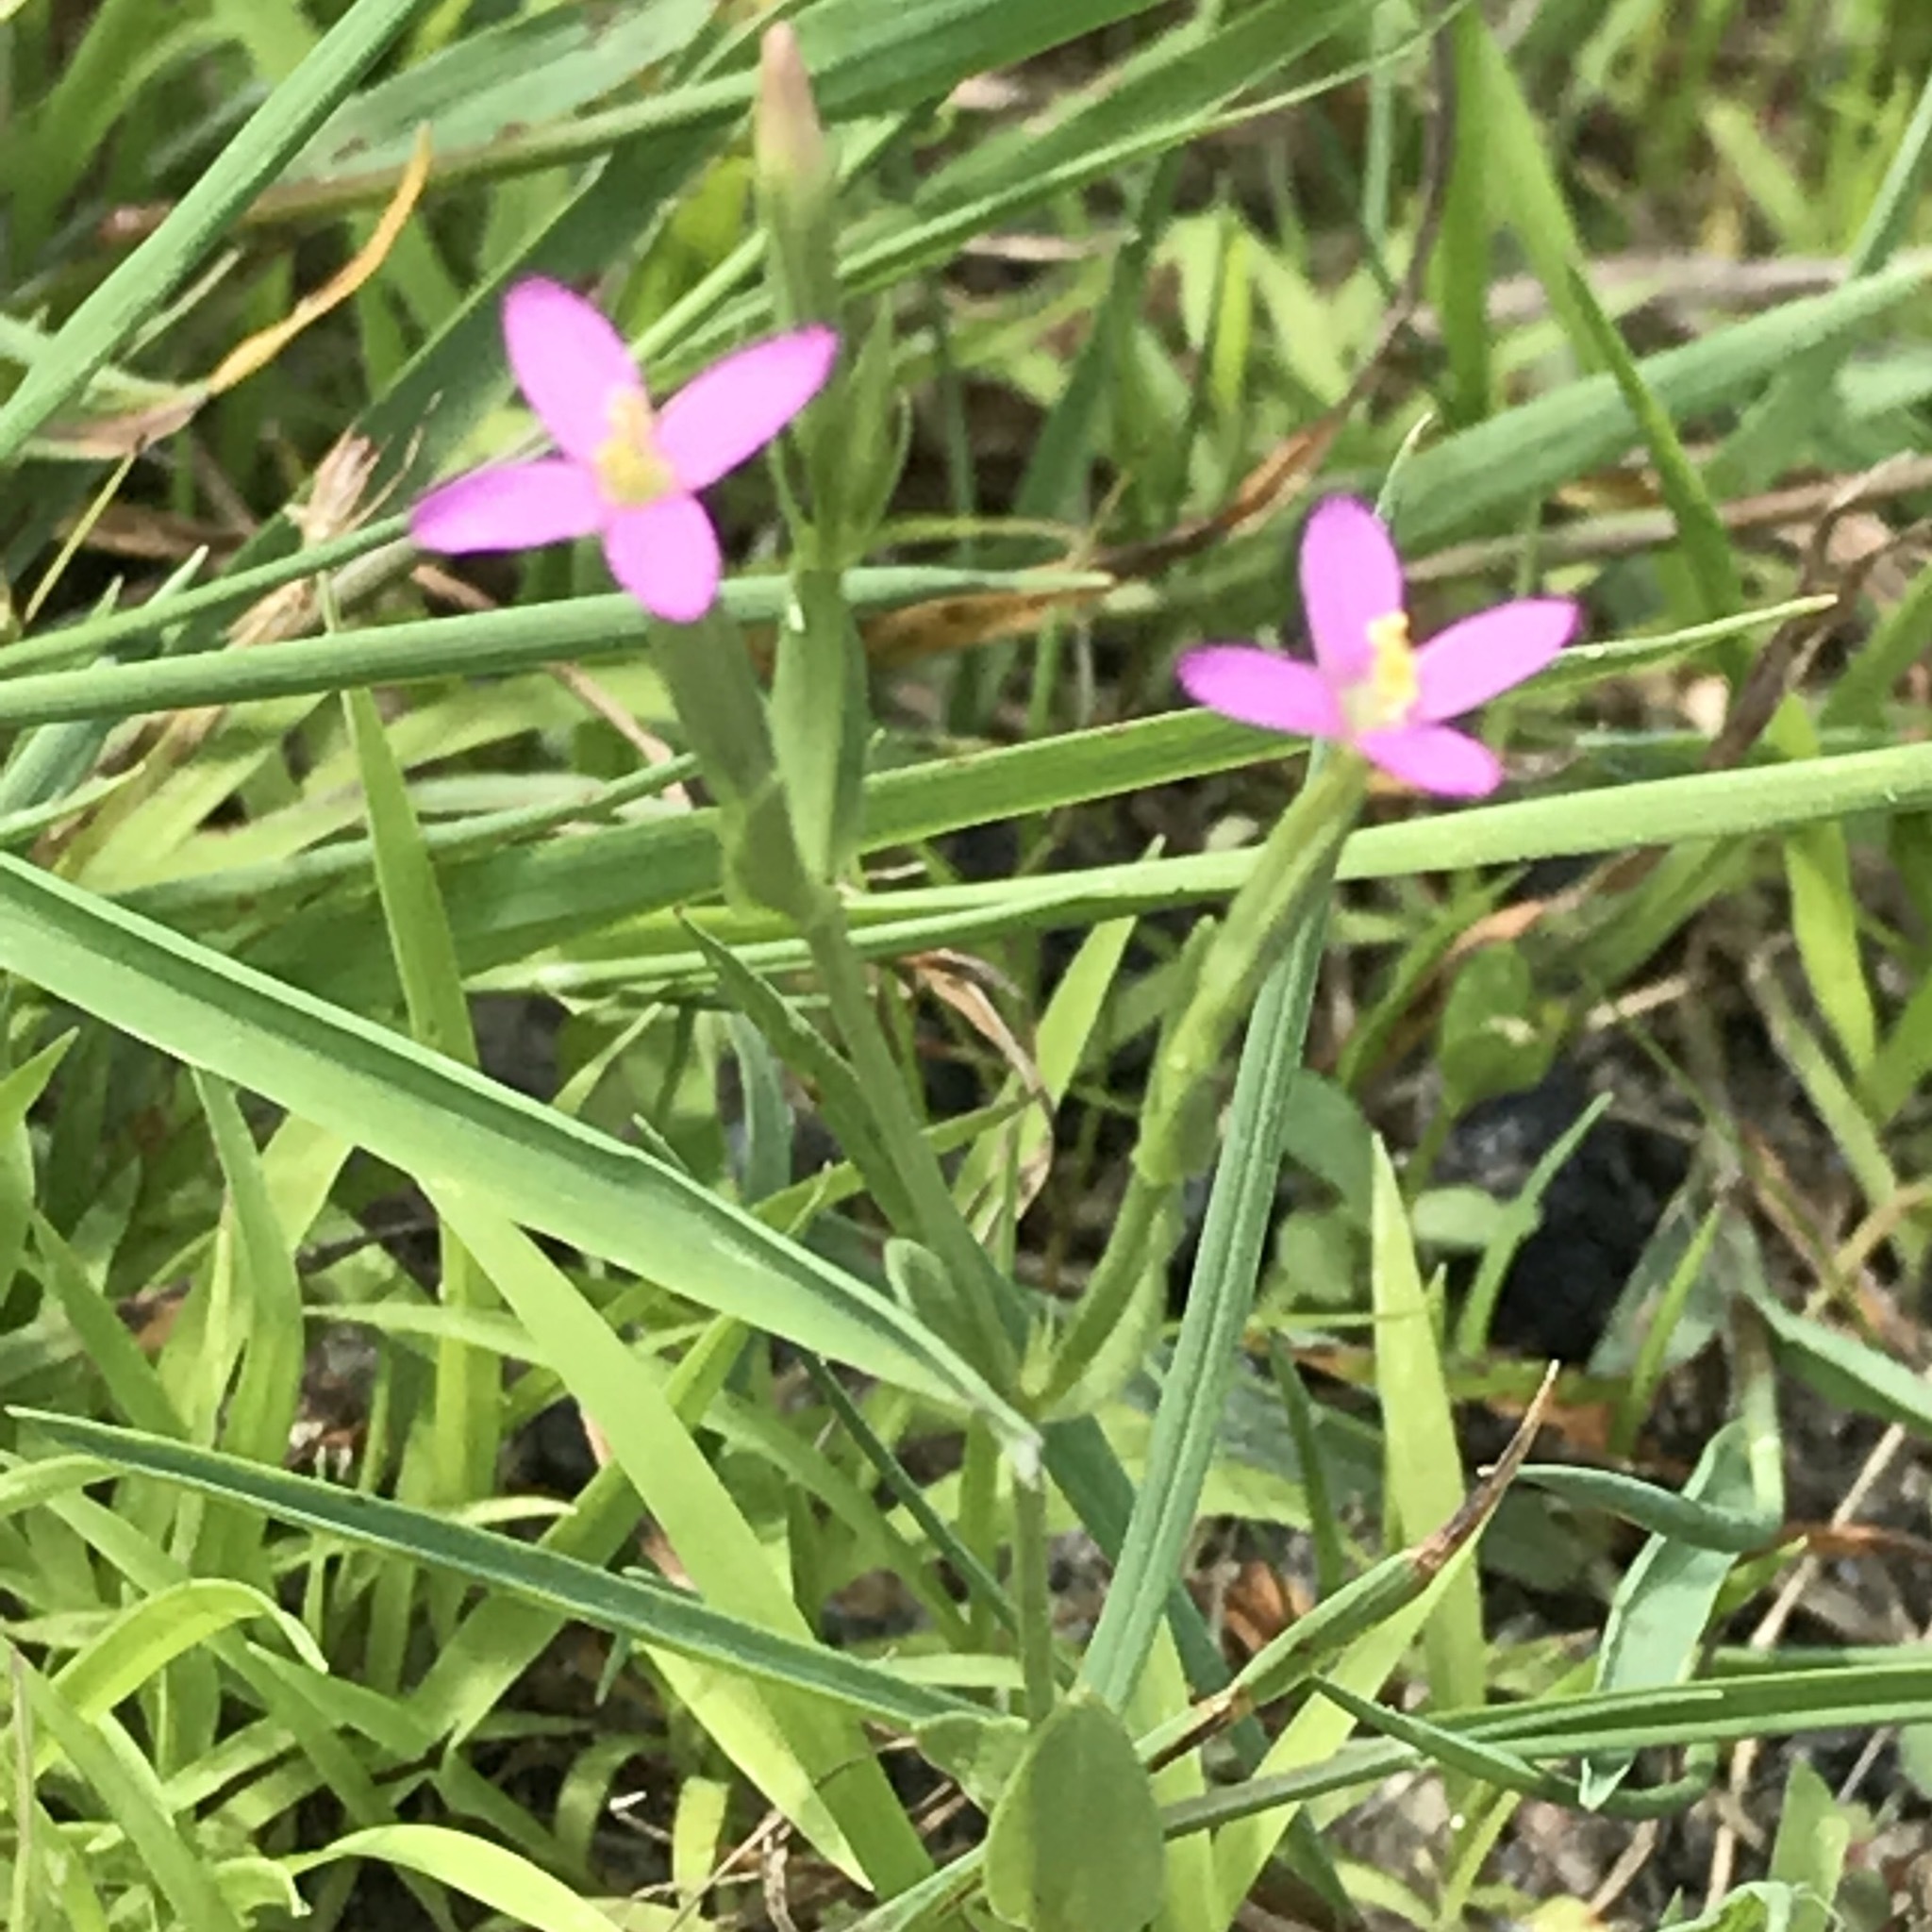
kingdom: Plantae
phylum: Tracheophyta
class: Magnoliopsida
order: Gentianales
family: Gentianaceae
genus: Centaurium
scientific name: Centaurium pulchellum
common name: Lesser centaury
